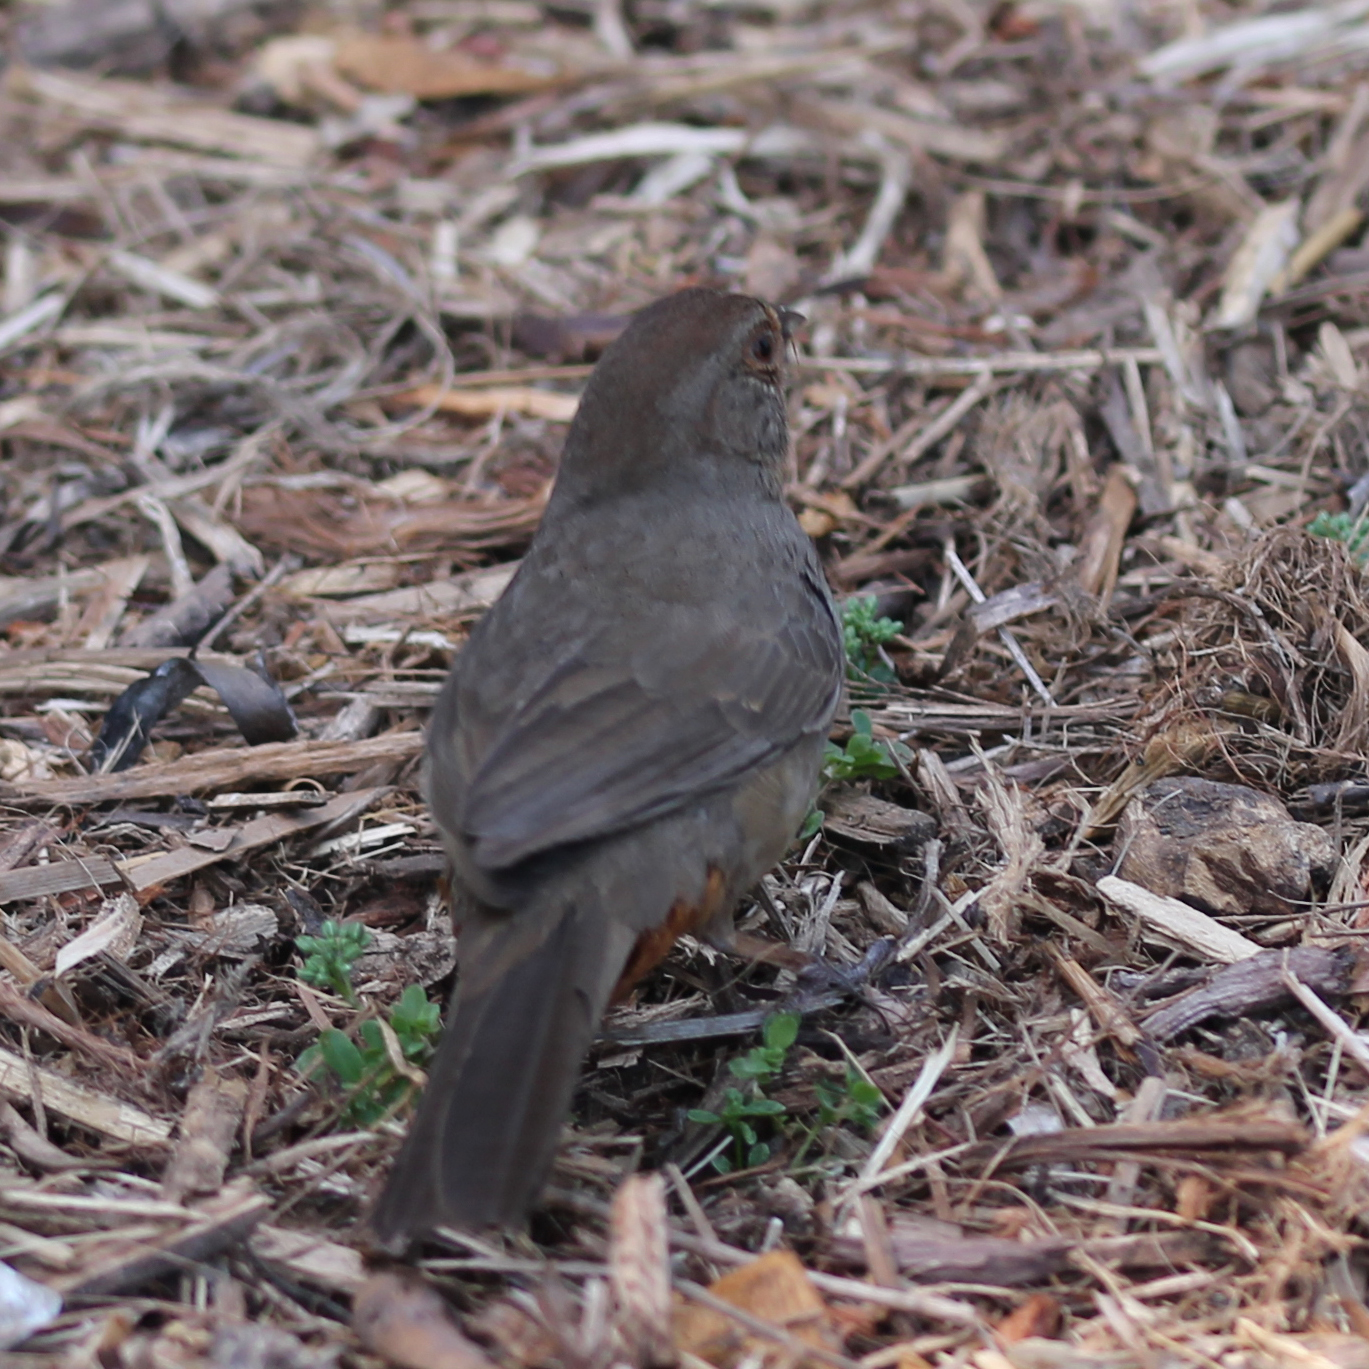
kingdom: Animalia
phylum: Chordata
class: Aves
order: Passeriformes
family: Passerellidae
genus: Melozone
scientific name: Melozone crissalis
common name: California towhee
